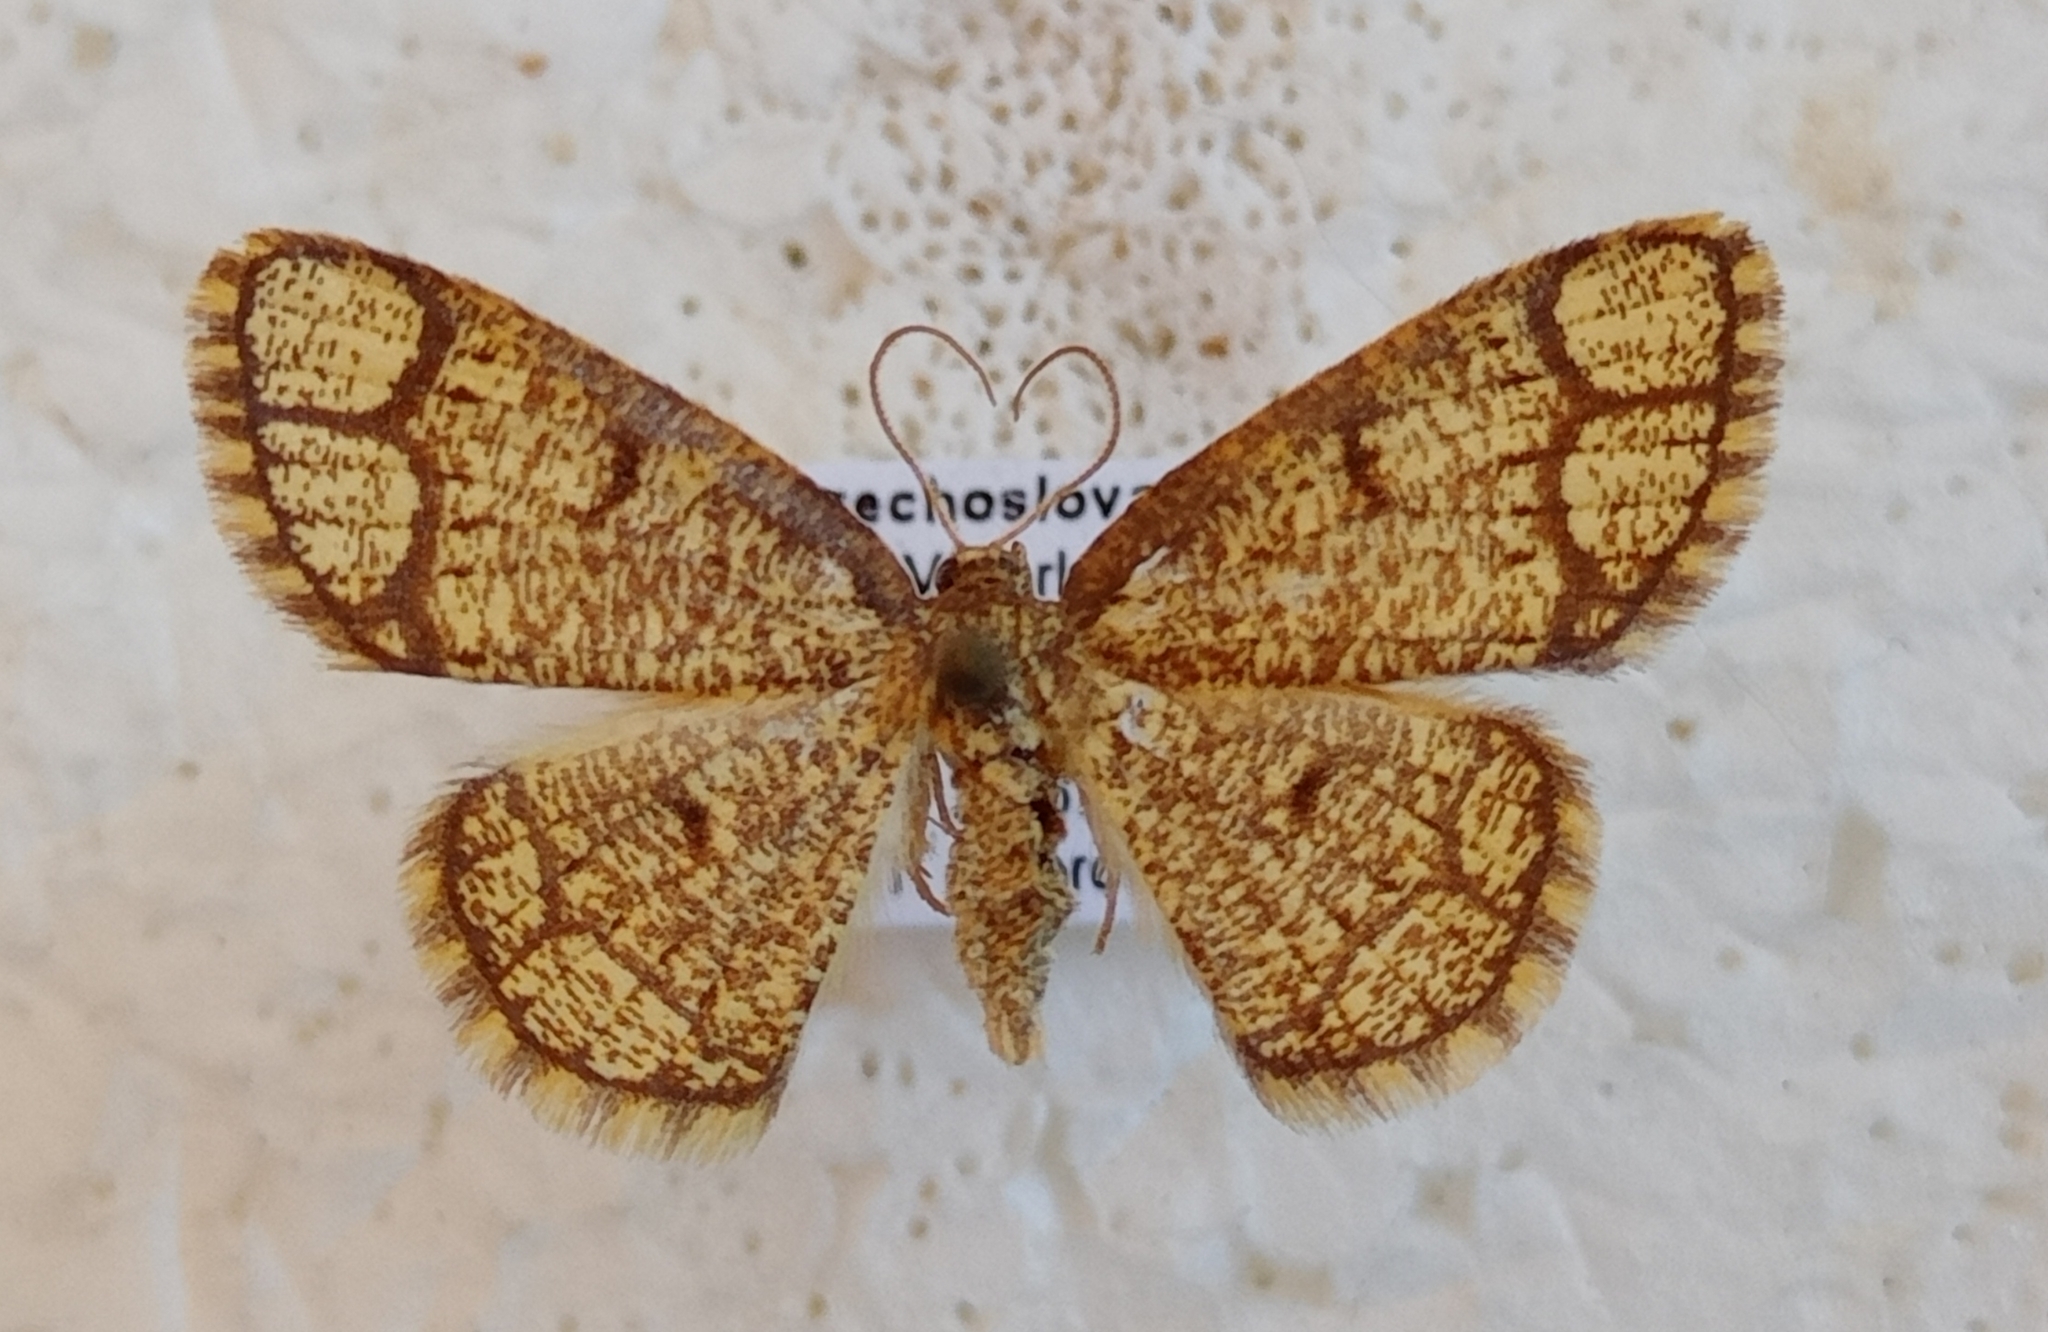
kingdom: Animalia
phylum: Arthropoda
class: Insecta
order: Lepidoptera
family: Geometridae
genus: Stegania
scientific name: Stegania cararia
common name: Ringed border
